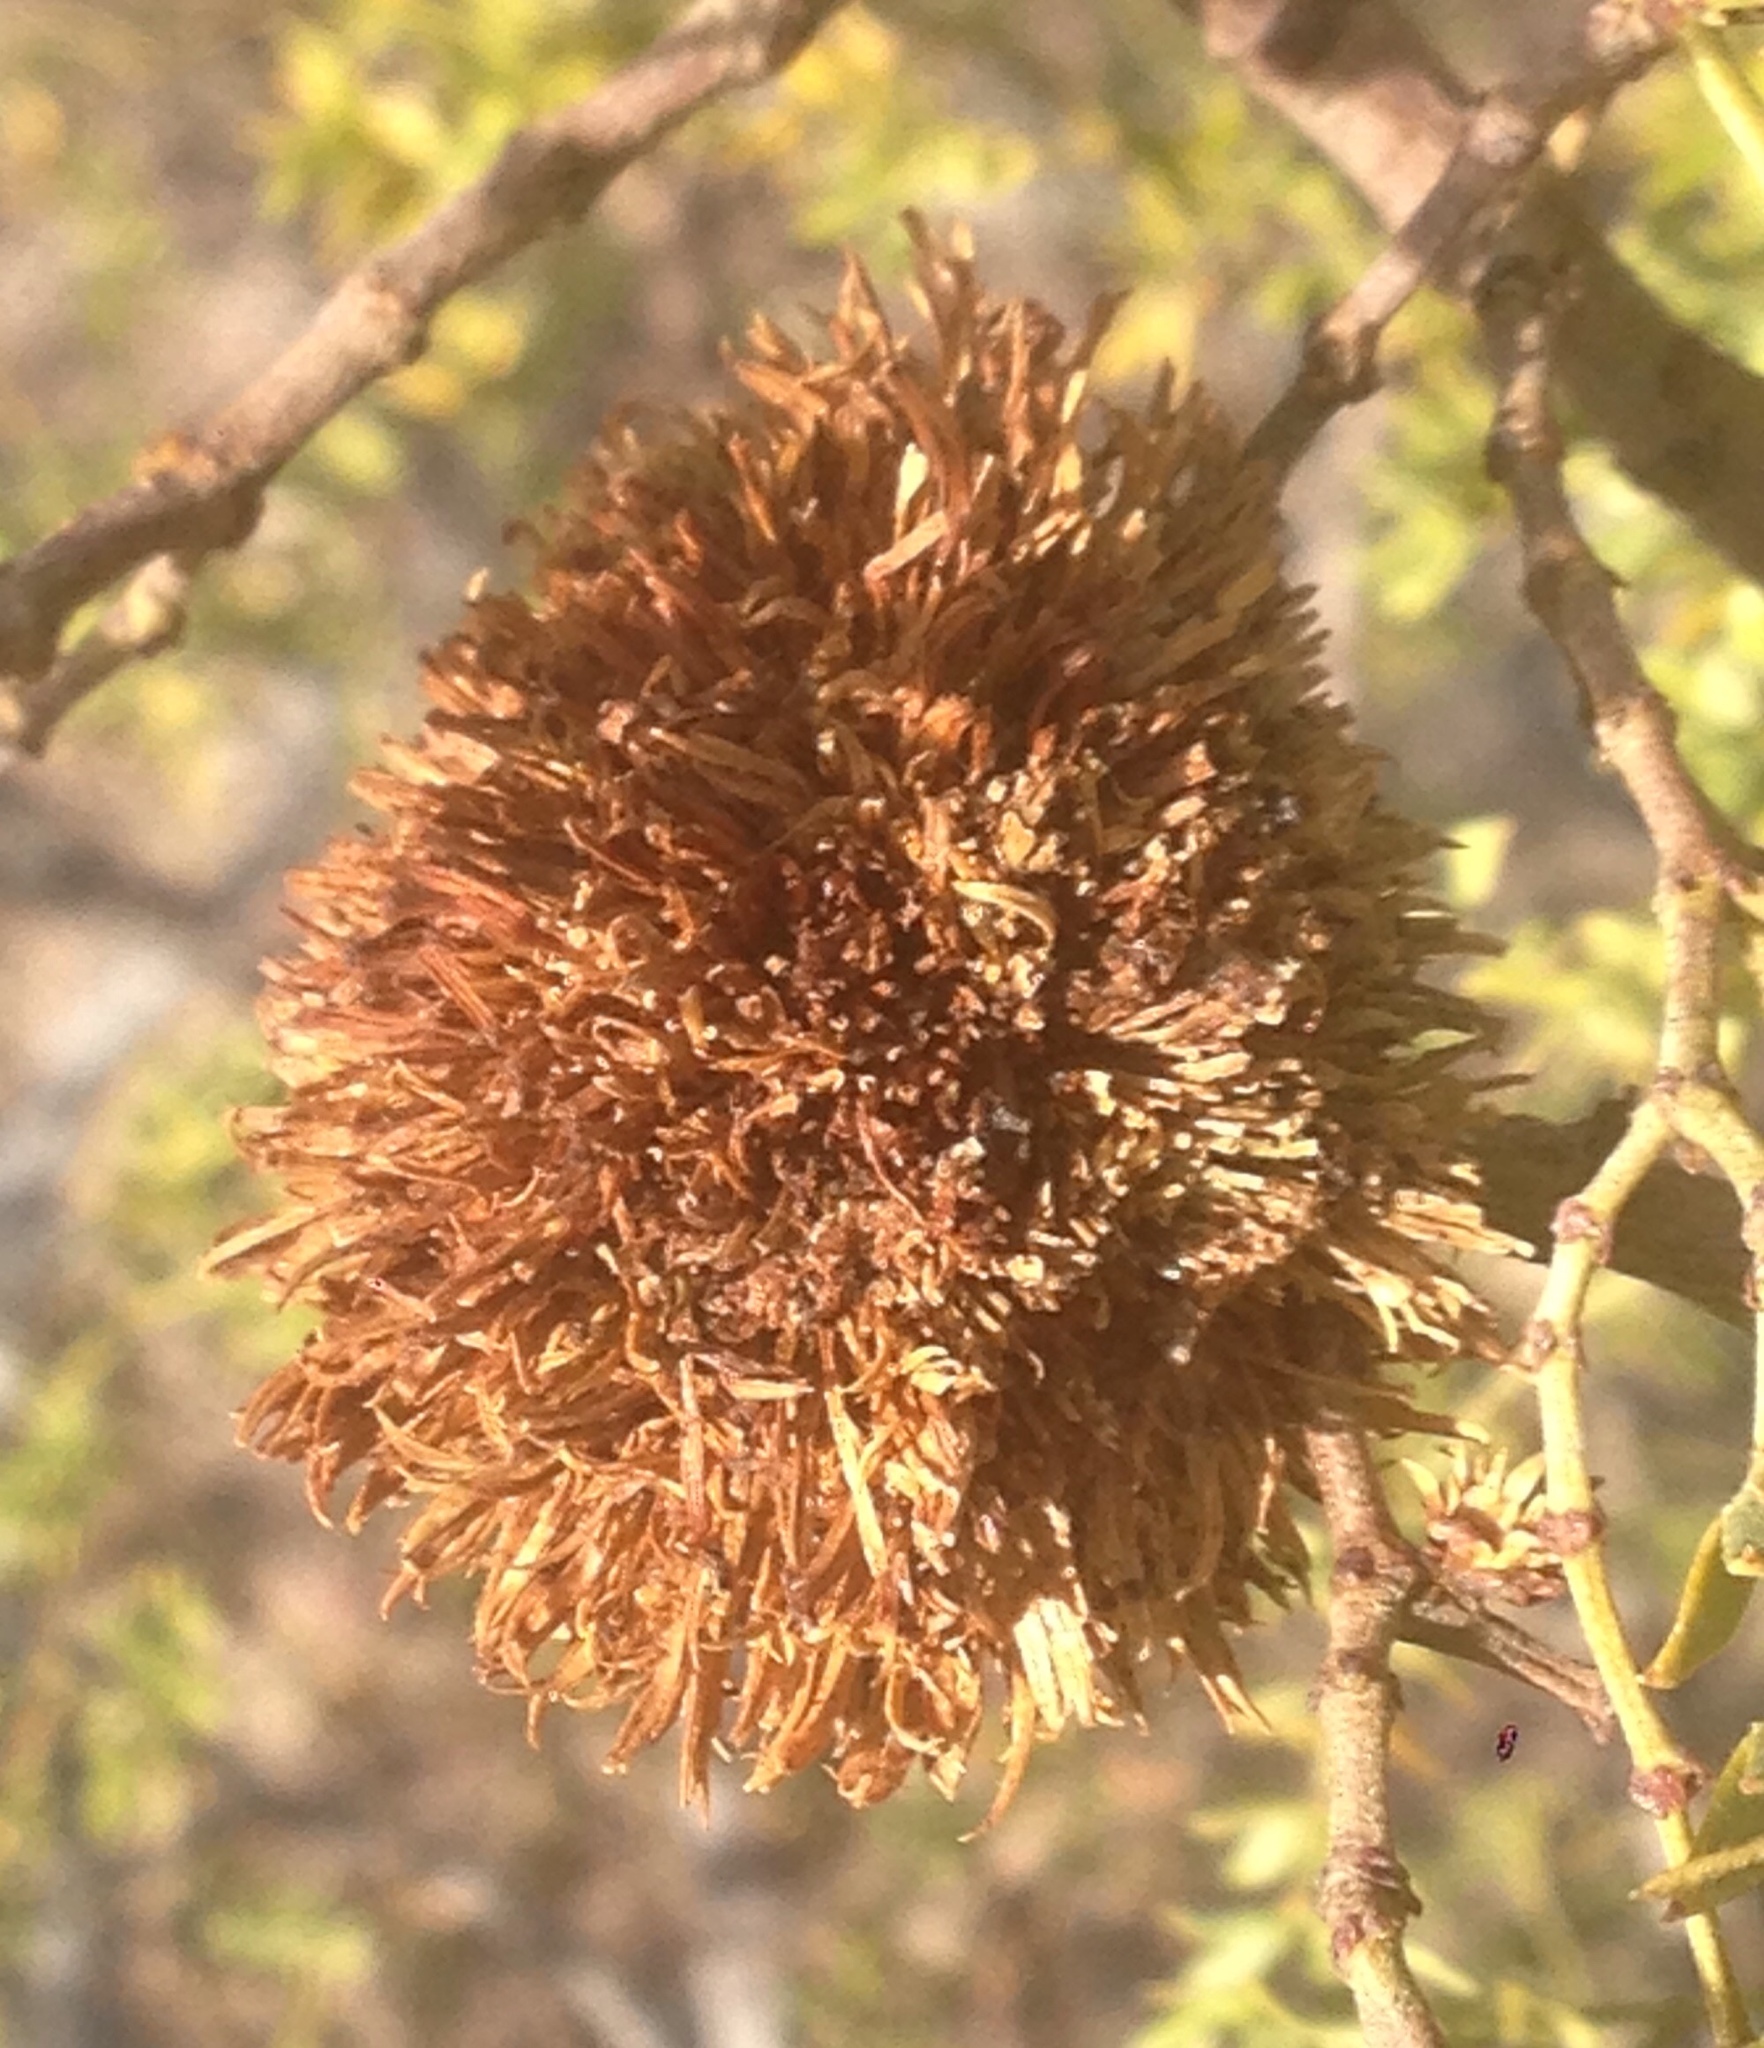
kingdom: Animalia
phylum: Arthropoda
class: Insecta
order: Diptera
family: Cecidomyiidae
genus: Asphondylia
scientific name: Asphondylia auripila
